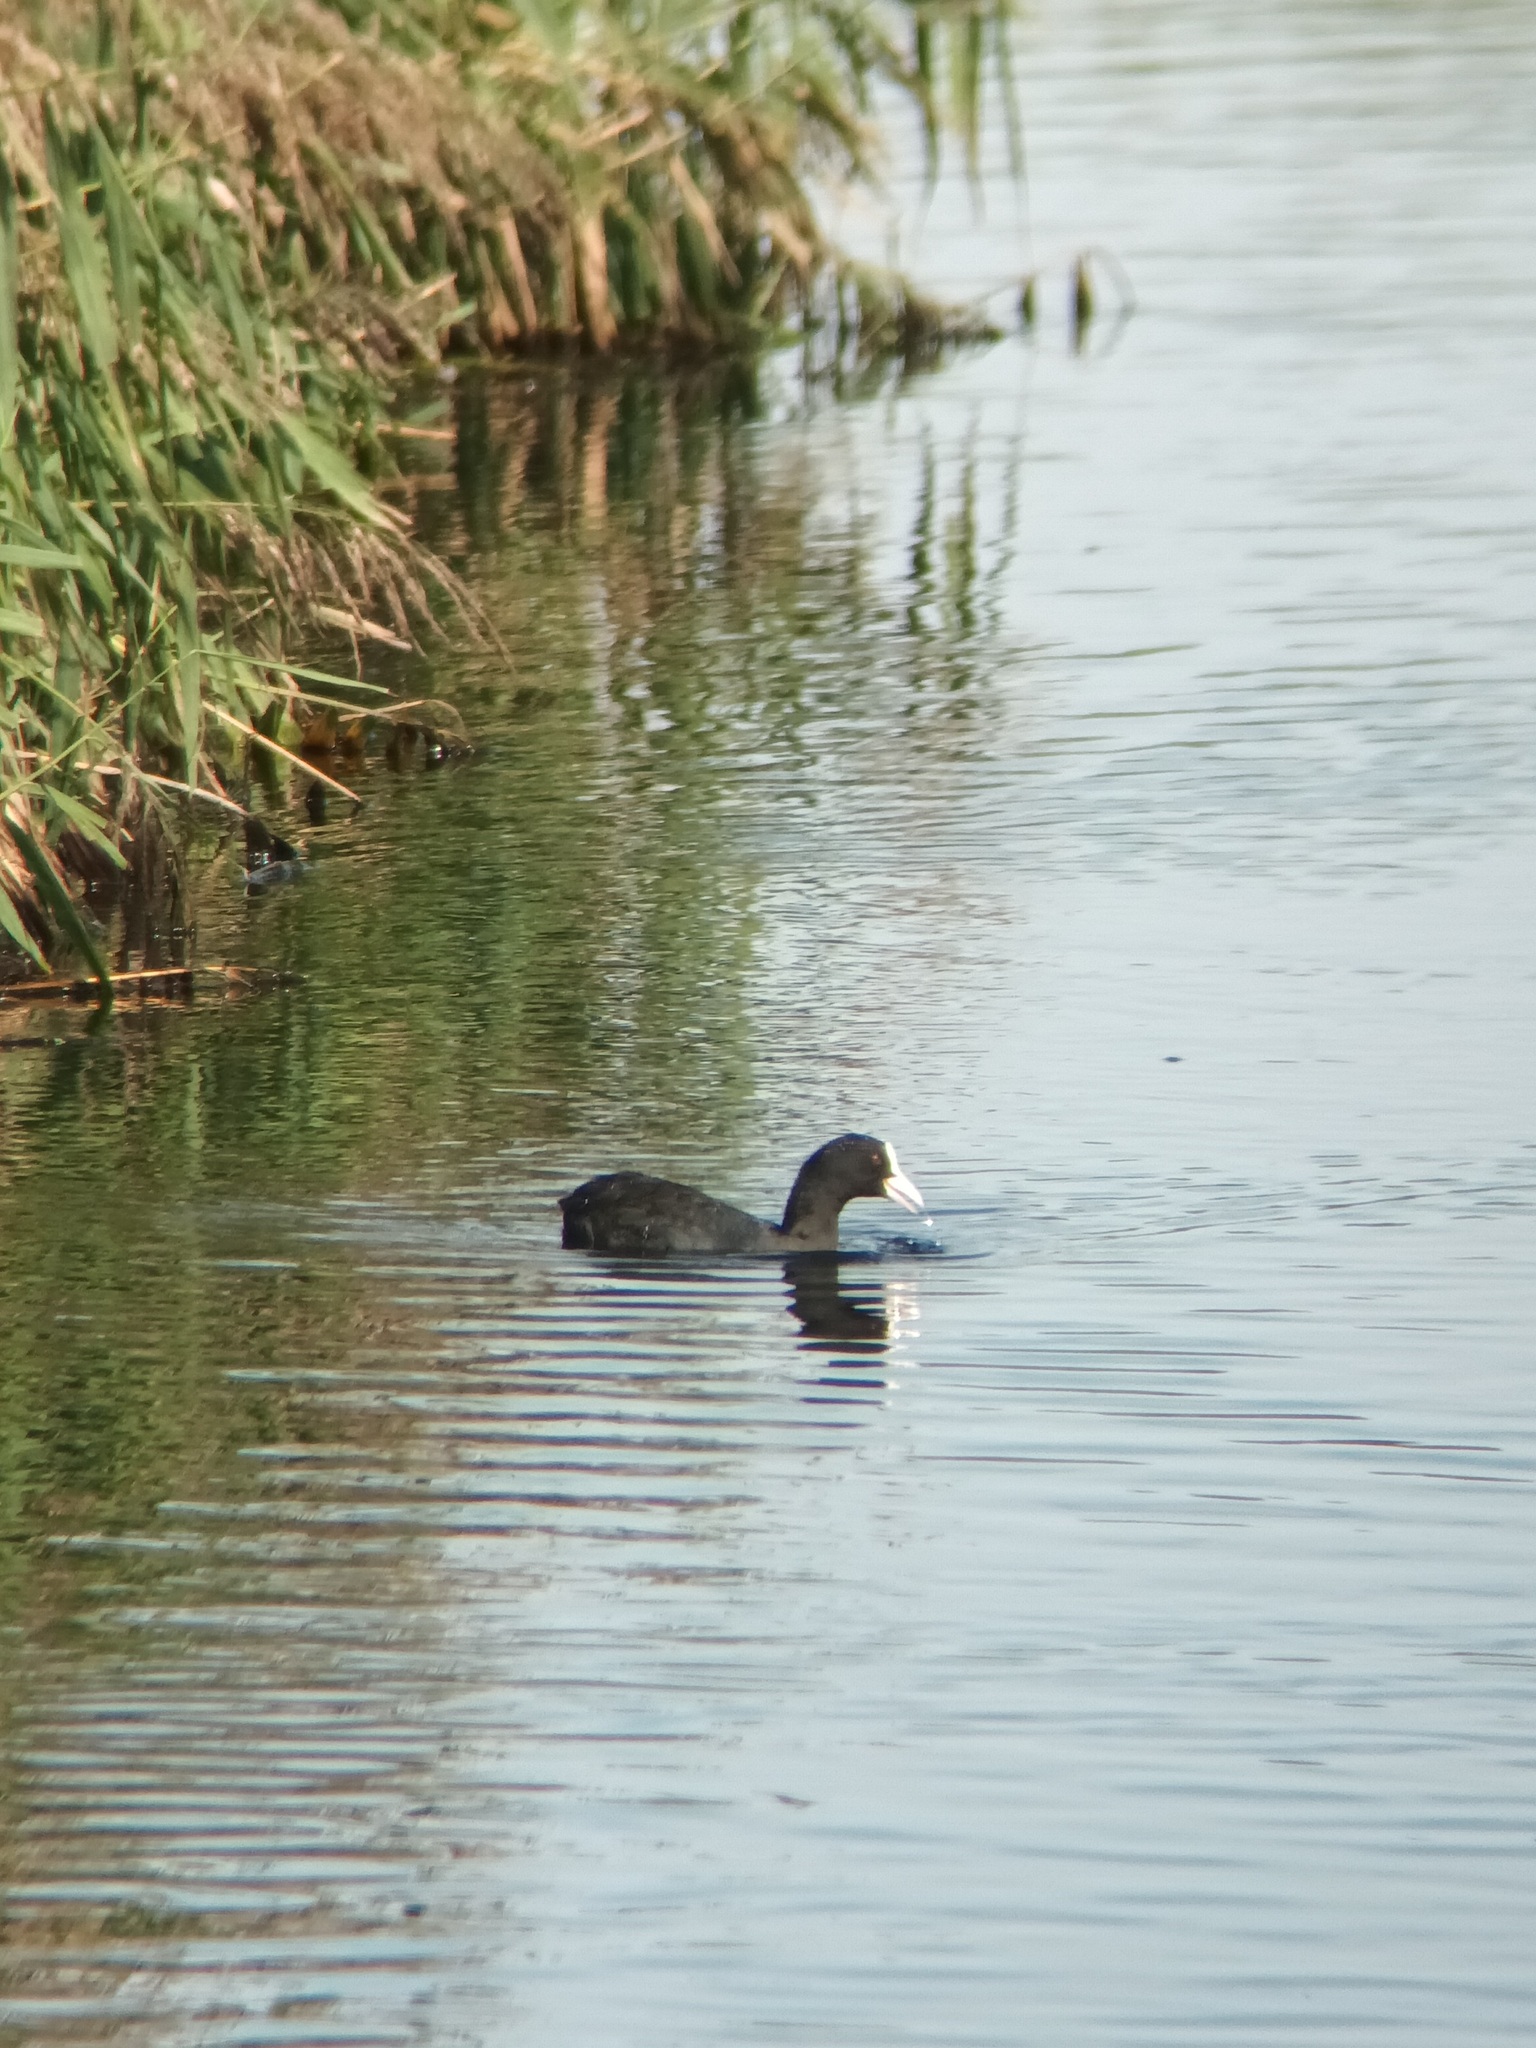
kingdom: Animalia
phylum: Chordata
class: Aves
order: Gruiformes
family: Rallidae
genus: Fulica
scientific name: Fulica atra
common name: Eurasian coot
